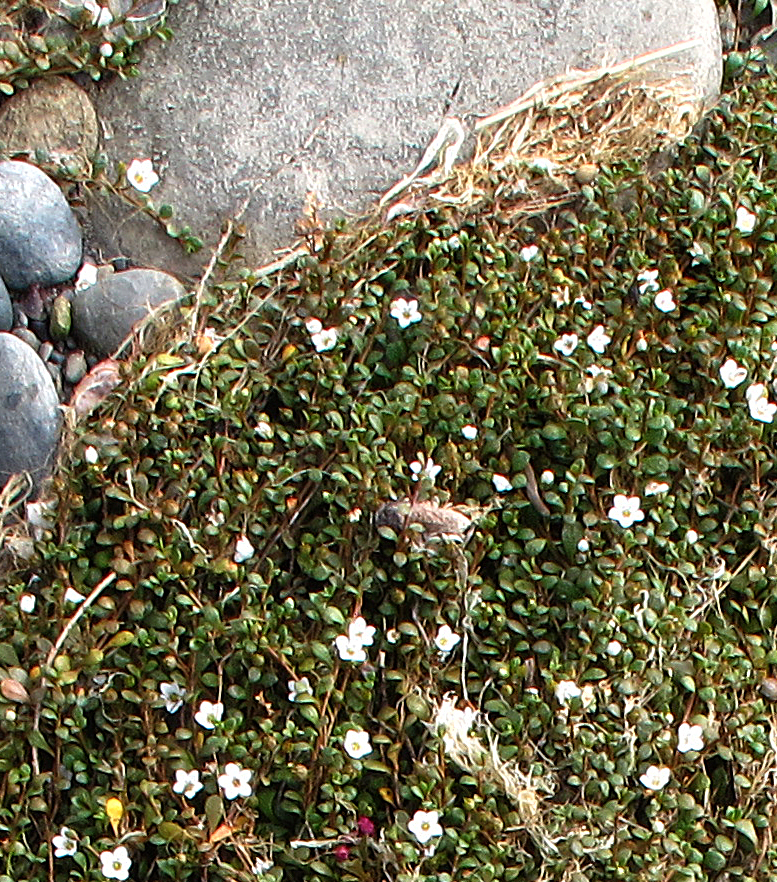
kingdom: Plantae
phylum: Tracheophyta
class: Magnoliopsida
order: Ericales
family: Primulaceae
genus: Samolus
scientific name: Samolus repens
